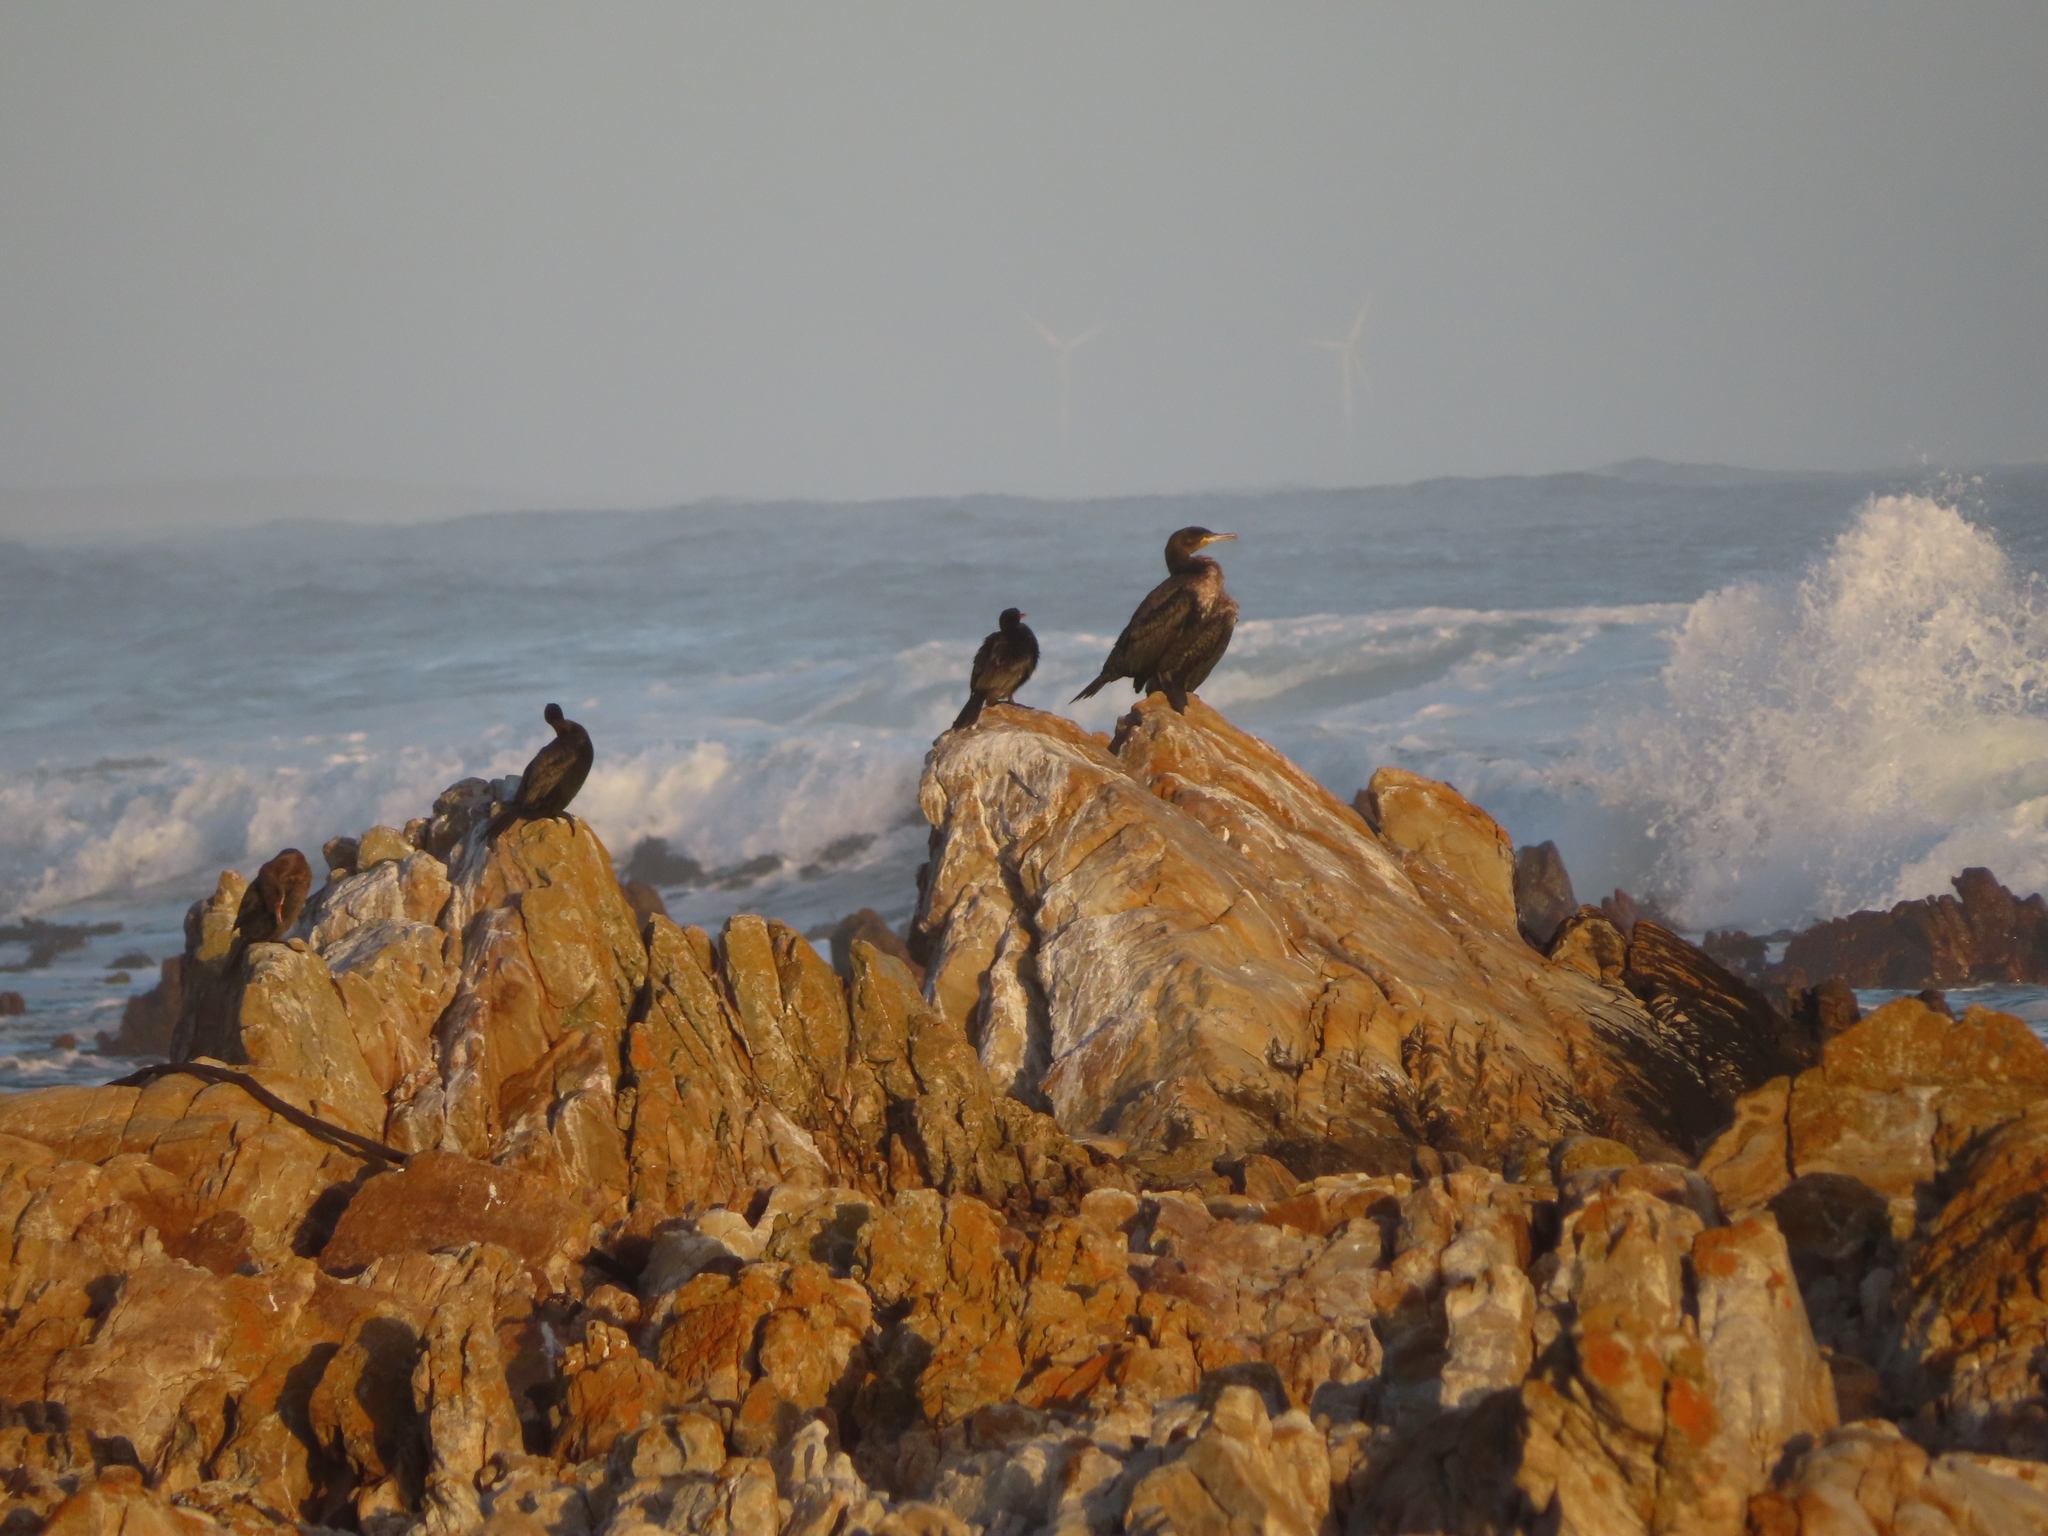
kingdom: Animalia
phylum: Chordata
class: Aves
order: Suliformes
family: Phalacrocoracidae
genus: Phalacrocorax
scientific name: Phalacrocorax capensis
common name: Cape cormorant
